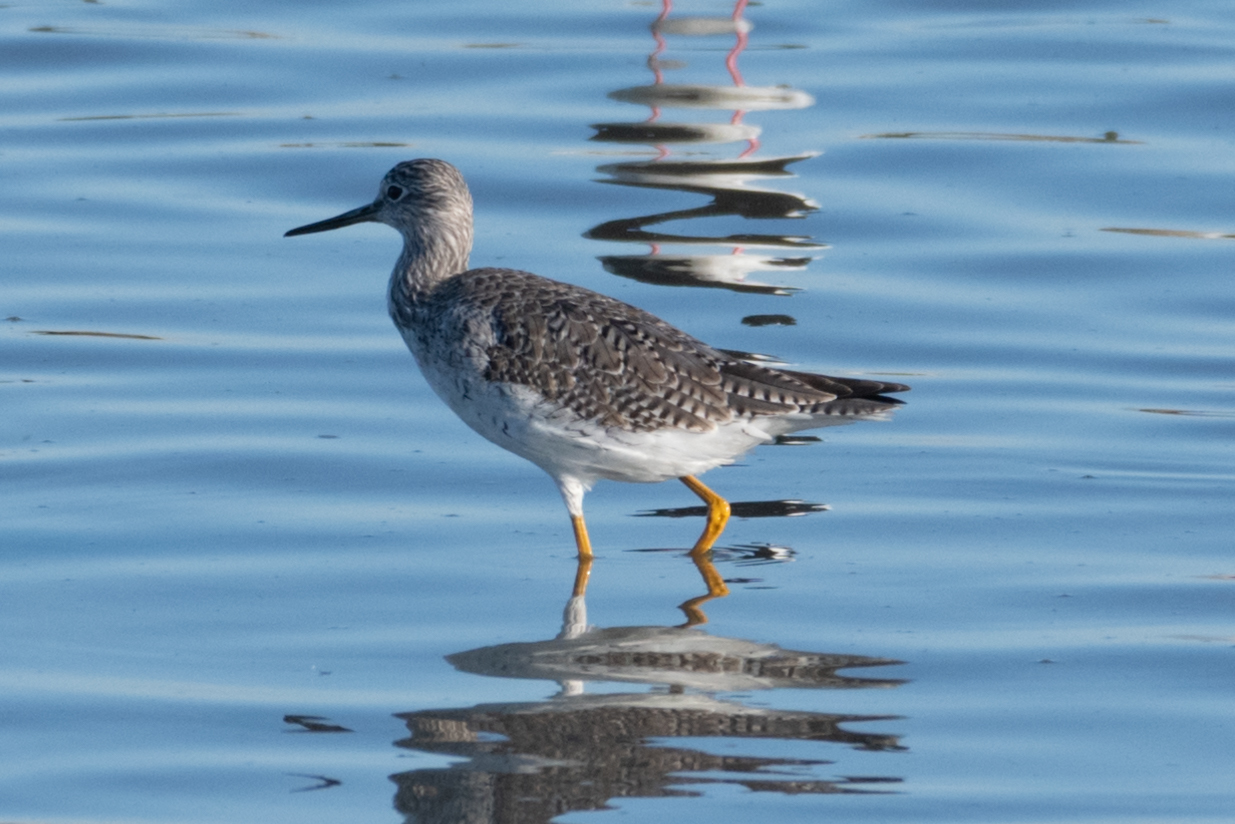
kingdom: Animalia
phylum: Chordata
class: Aves
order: Charadriiformes
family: Scolopacidae
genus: Tringa
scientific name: Tringa melanoleuca
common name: Greater yellowlegs
